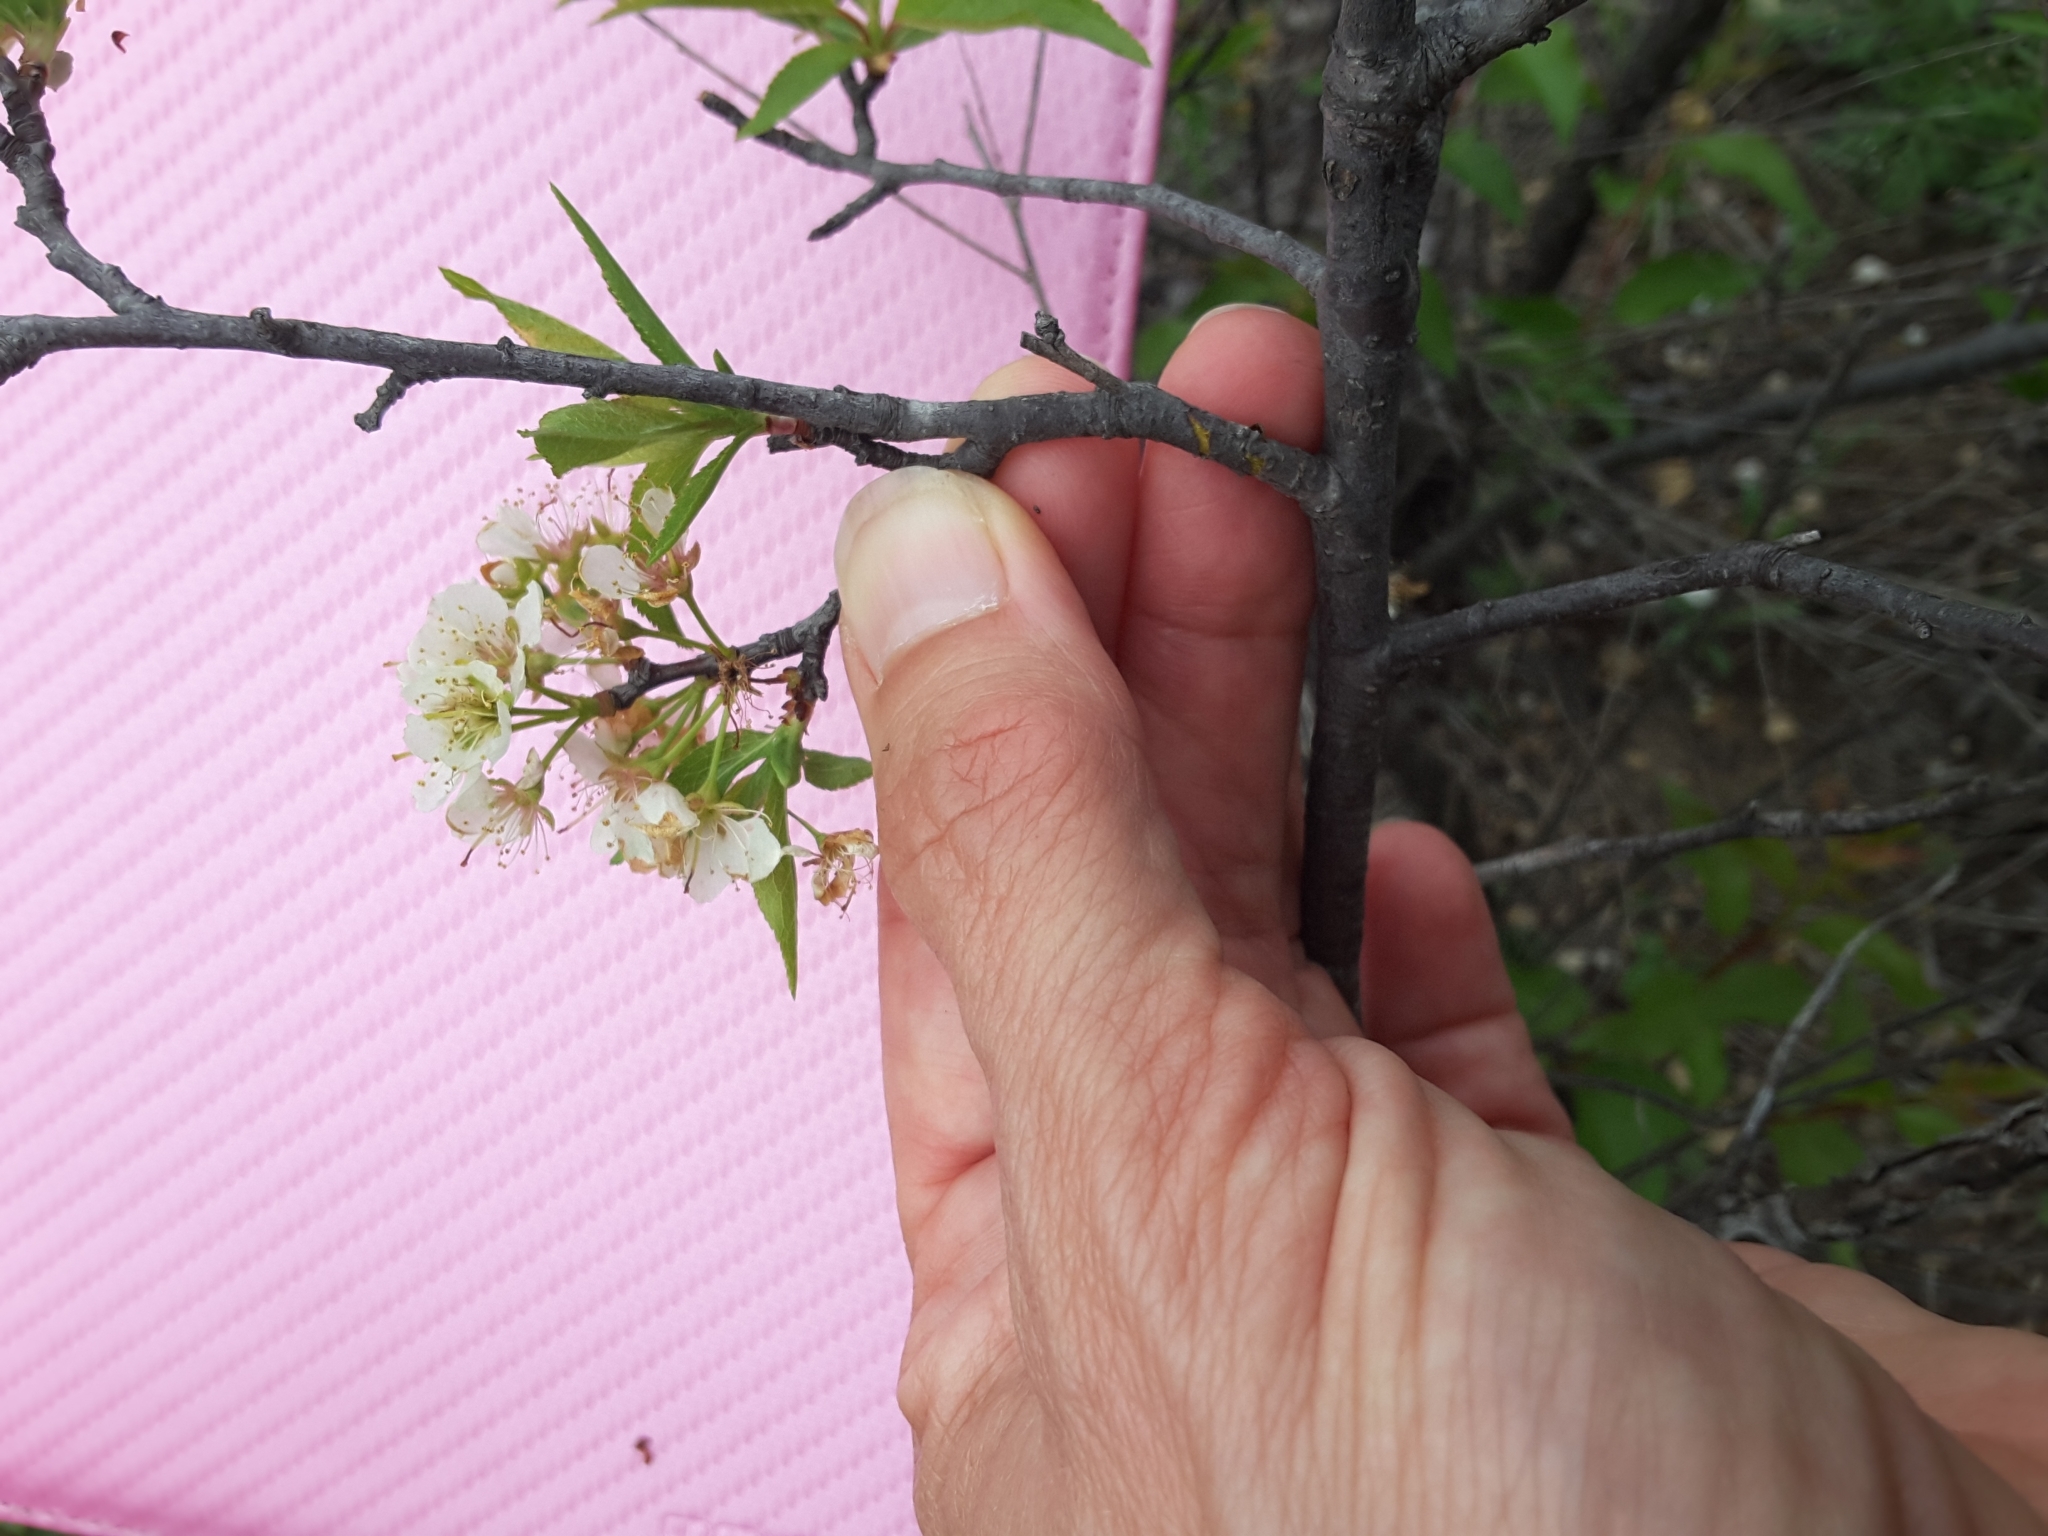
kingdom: Plantae
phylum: Tracheophyta
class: Magnoliopsida
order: Rosales
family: Rosaceae
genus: Prunus
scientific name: Prunus rivularis
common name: Creek plum
